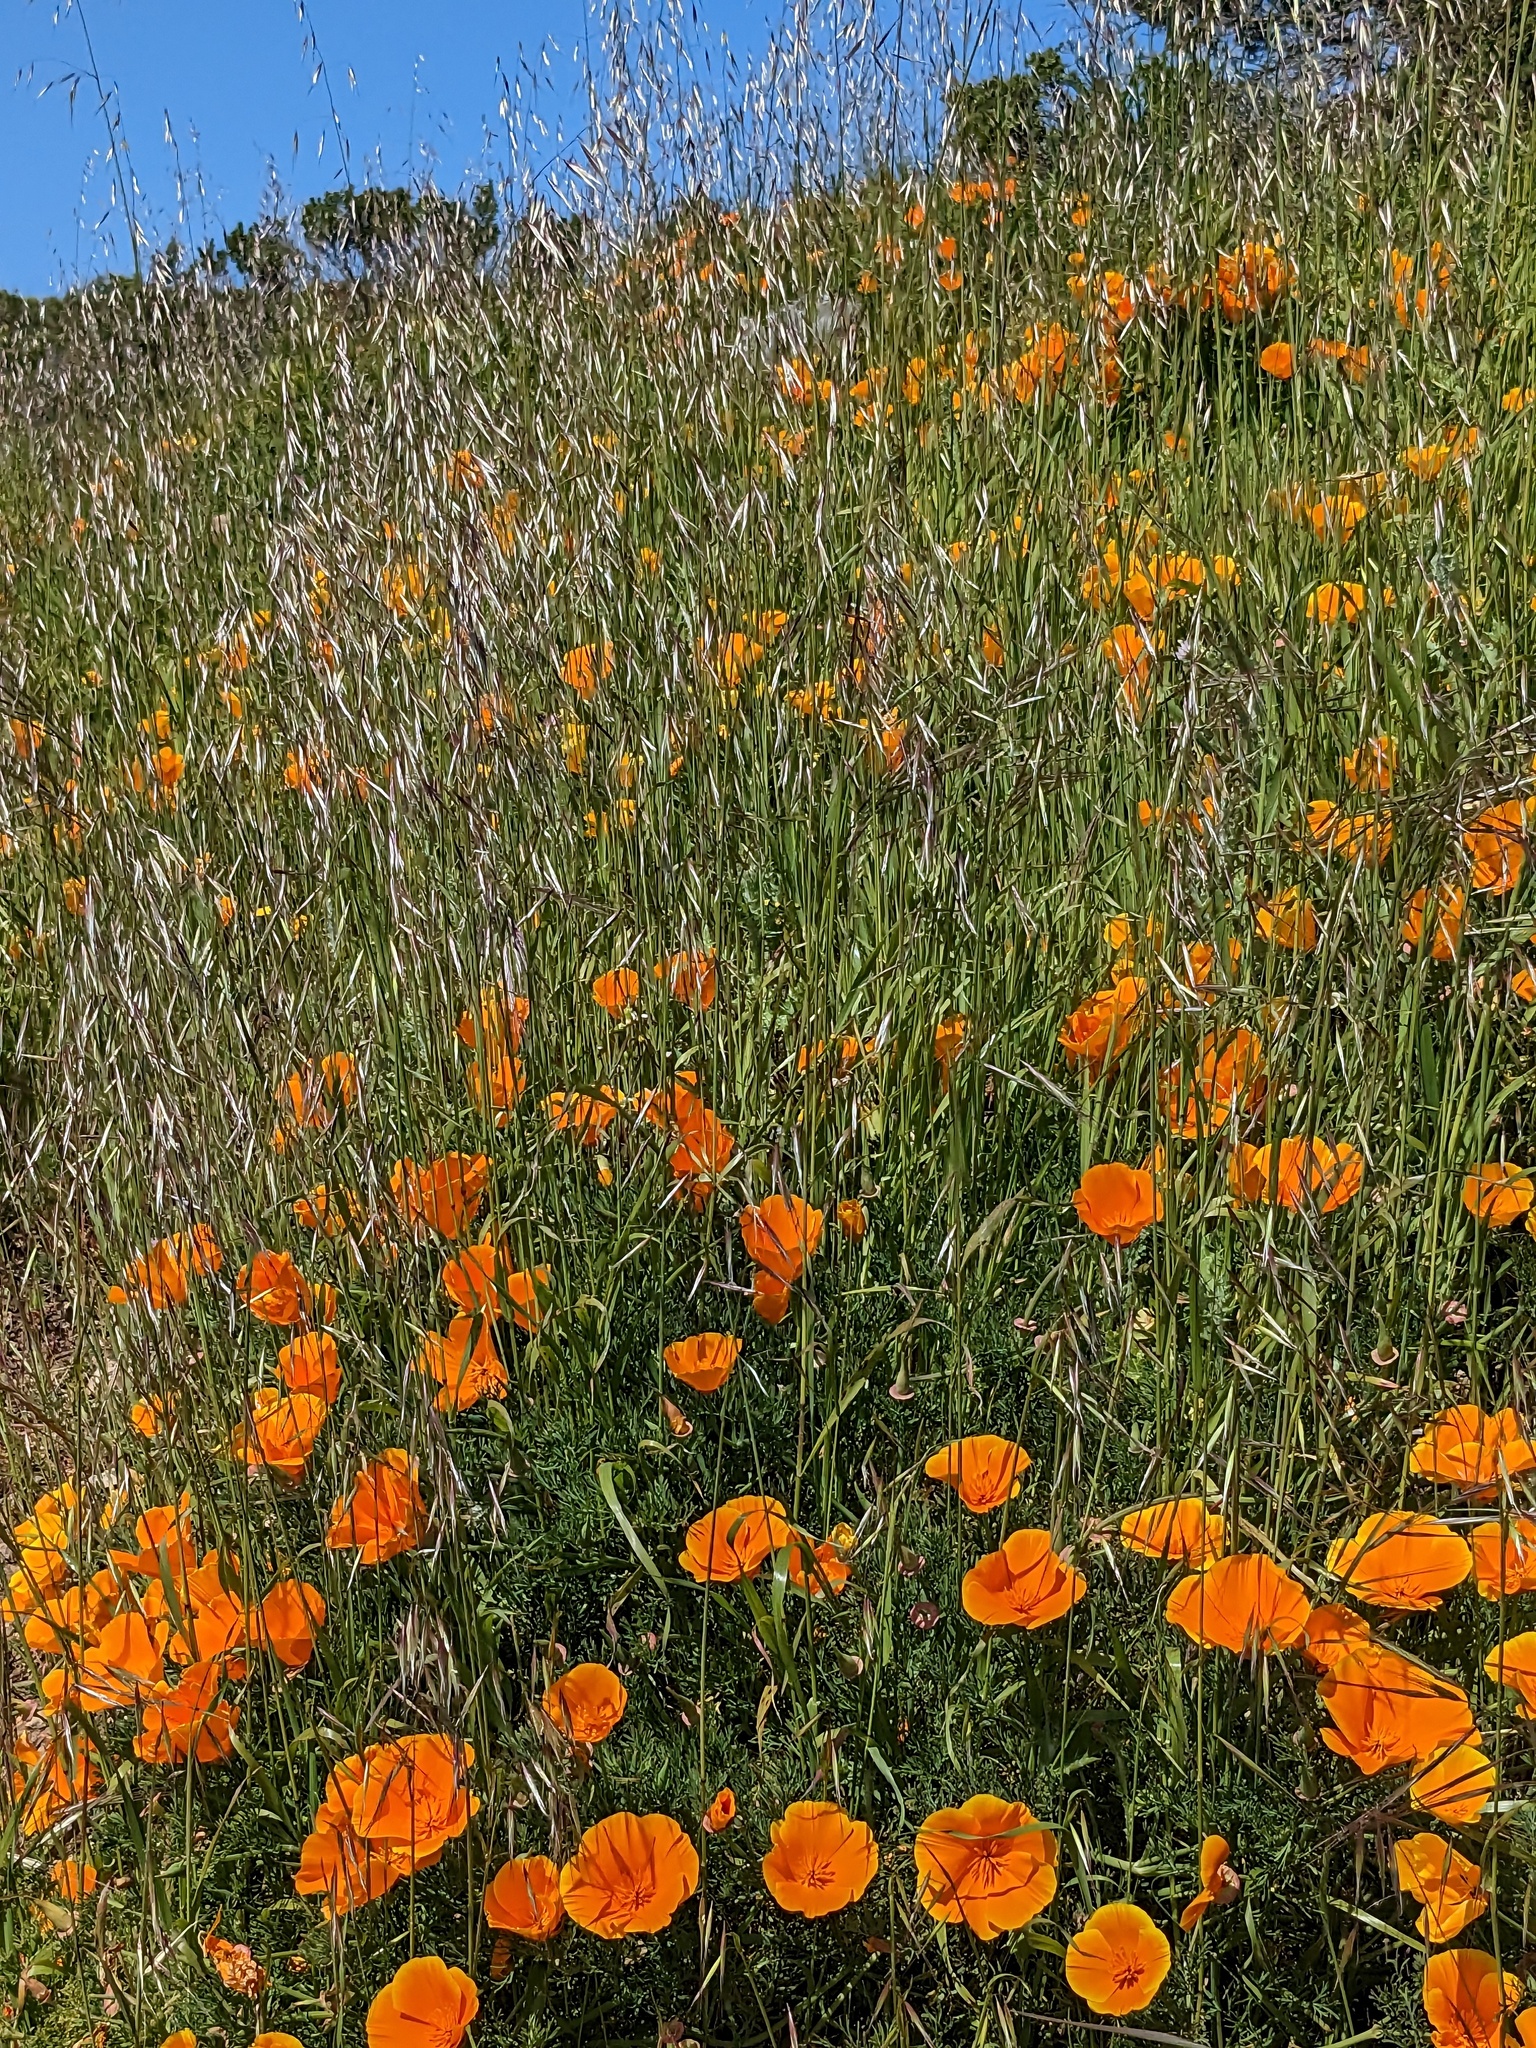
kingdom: Plantae
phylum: Tracheophyta
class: Magnoliopsida
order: Ranunculales
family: Papaveraceae
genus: Eschscholzia
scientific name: Eschscholzia californica
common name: California poppy
